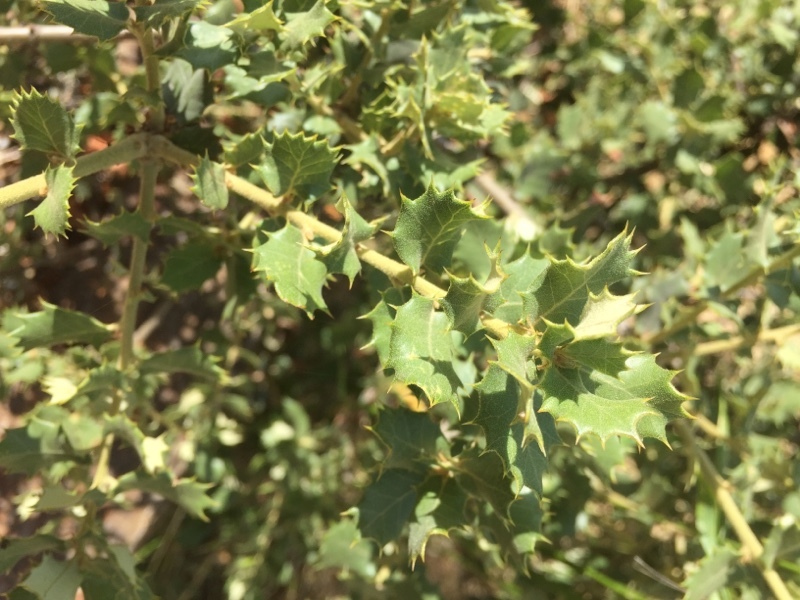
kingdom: Plantae
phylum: Tracheophyta
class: Magnoliopsida
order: Fagales
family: Fagaceae
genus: Quercus
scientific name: Quercus rotundifolia
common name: Holm oak
